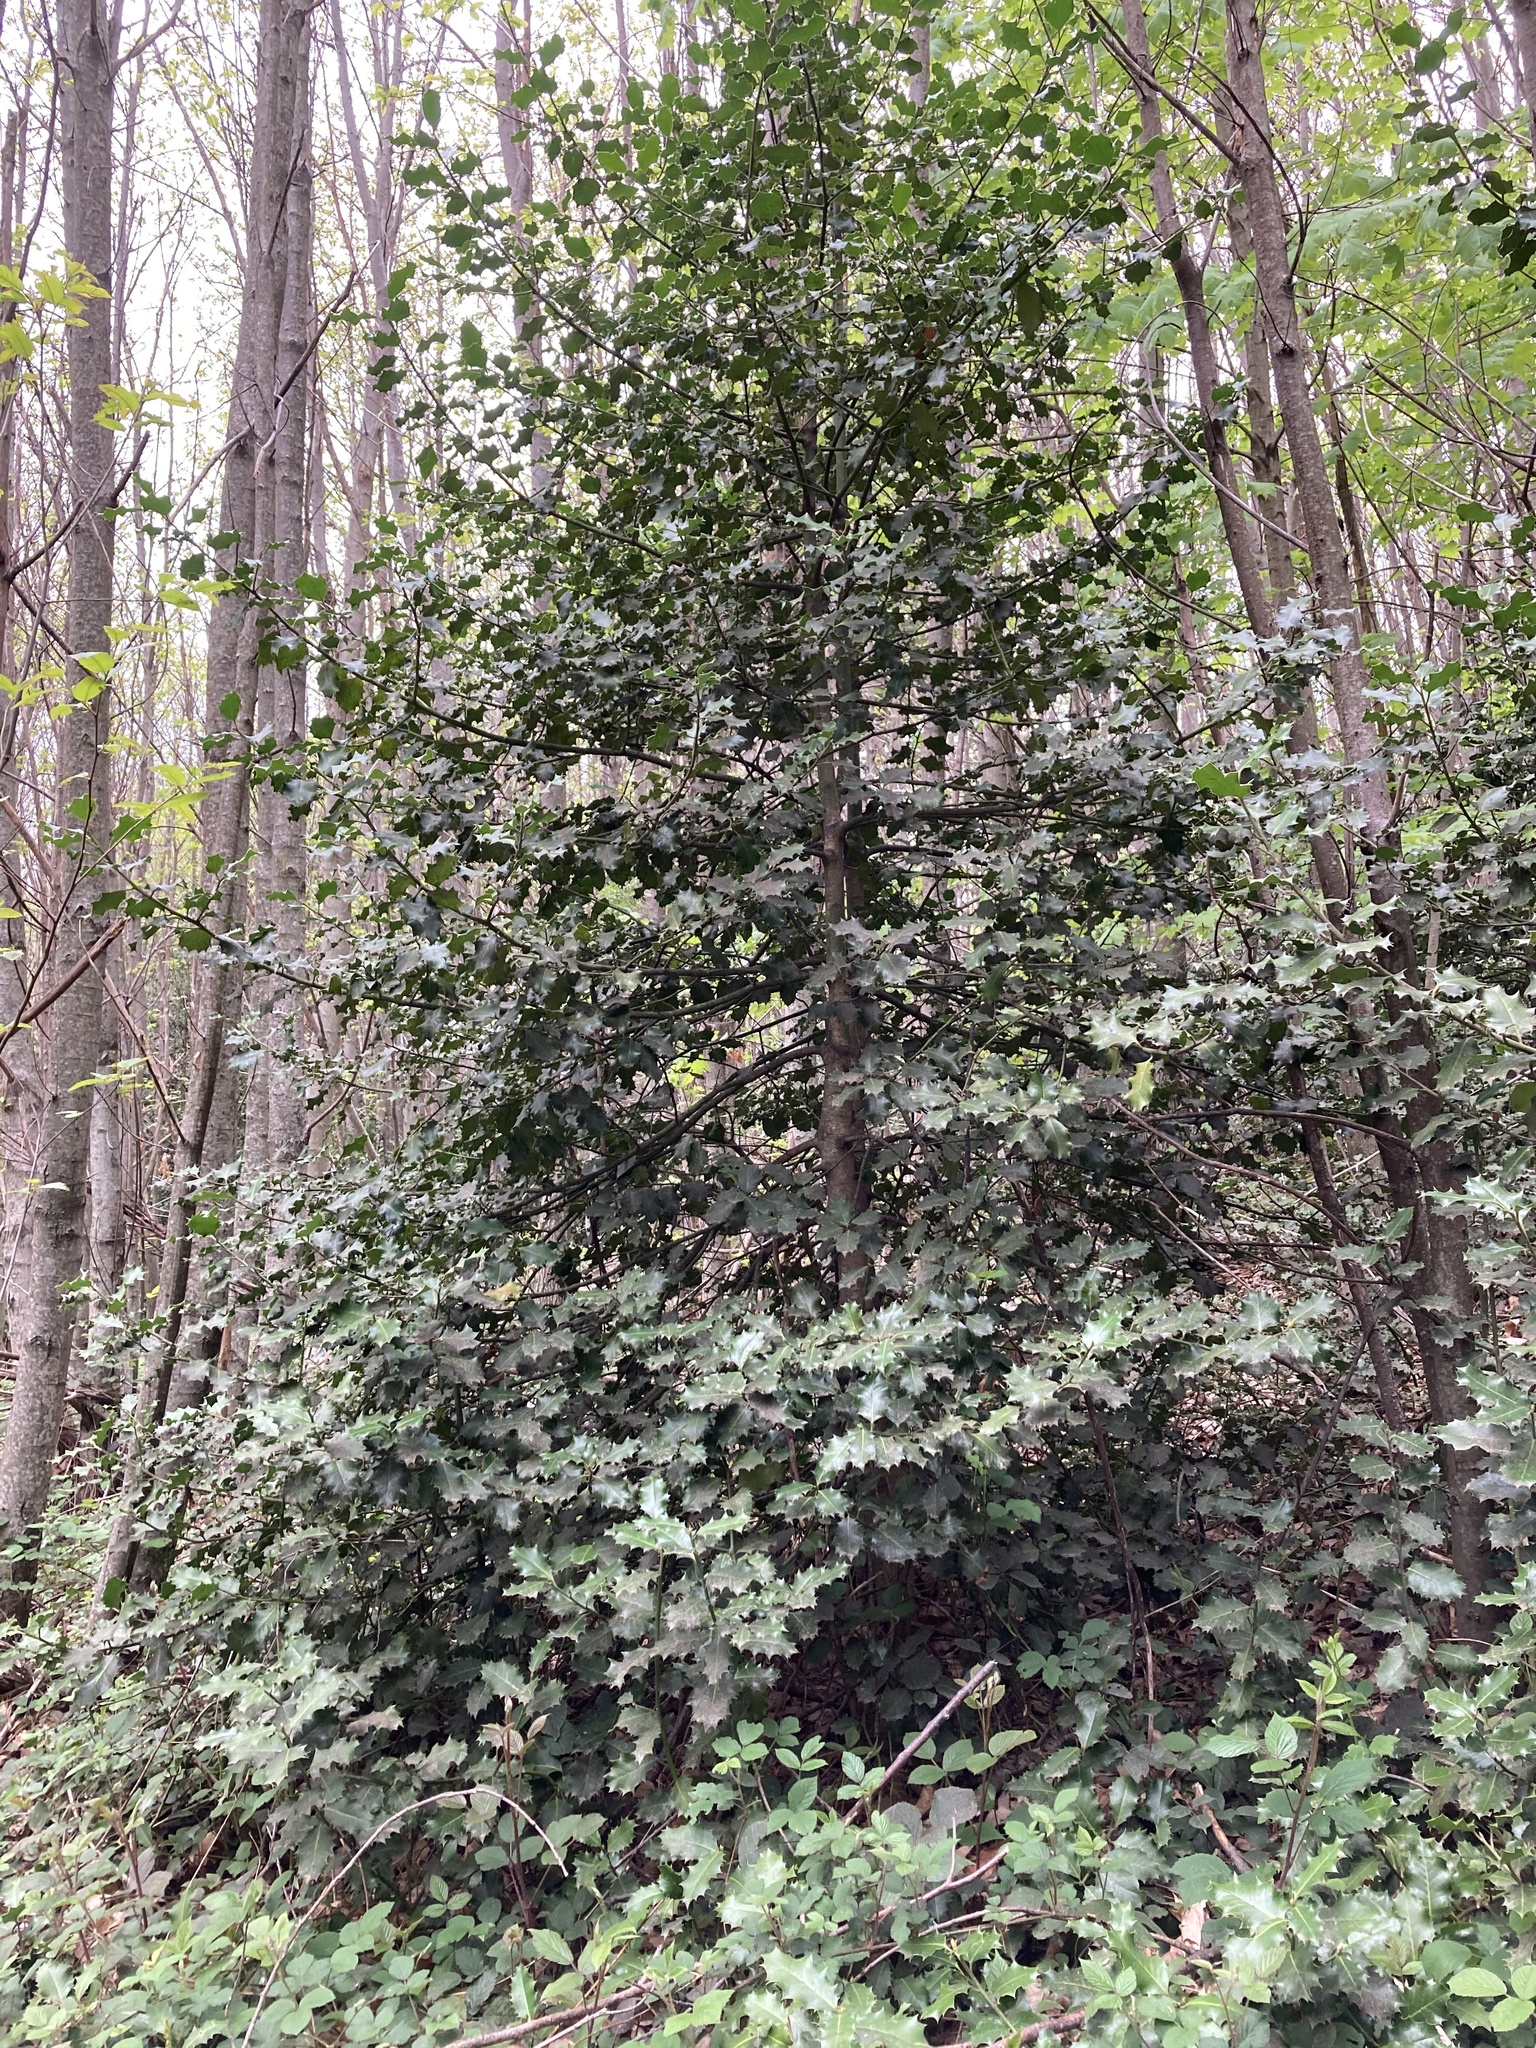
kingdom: Plantae
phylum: Tracheophyta
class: Magnoliopsida
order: Aquifoliales
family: Aquifoliaceae
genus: Ilex
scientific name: Ilex aquifolium
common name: English holly
